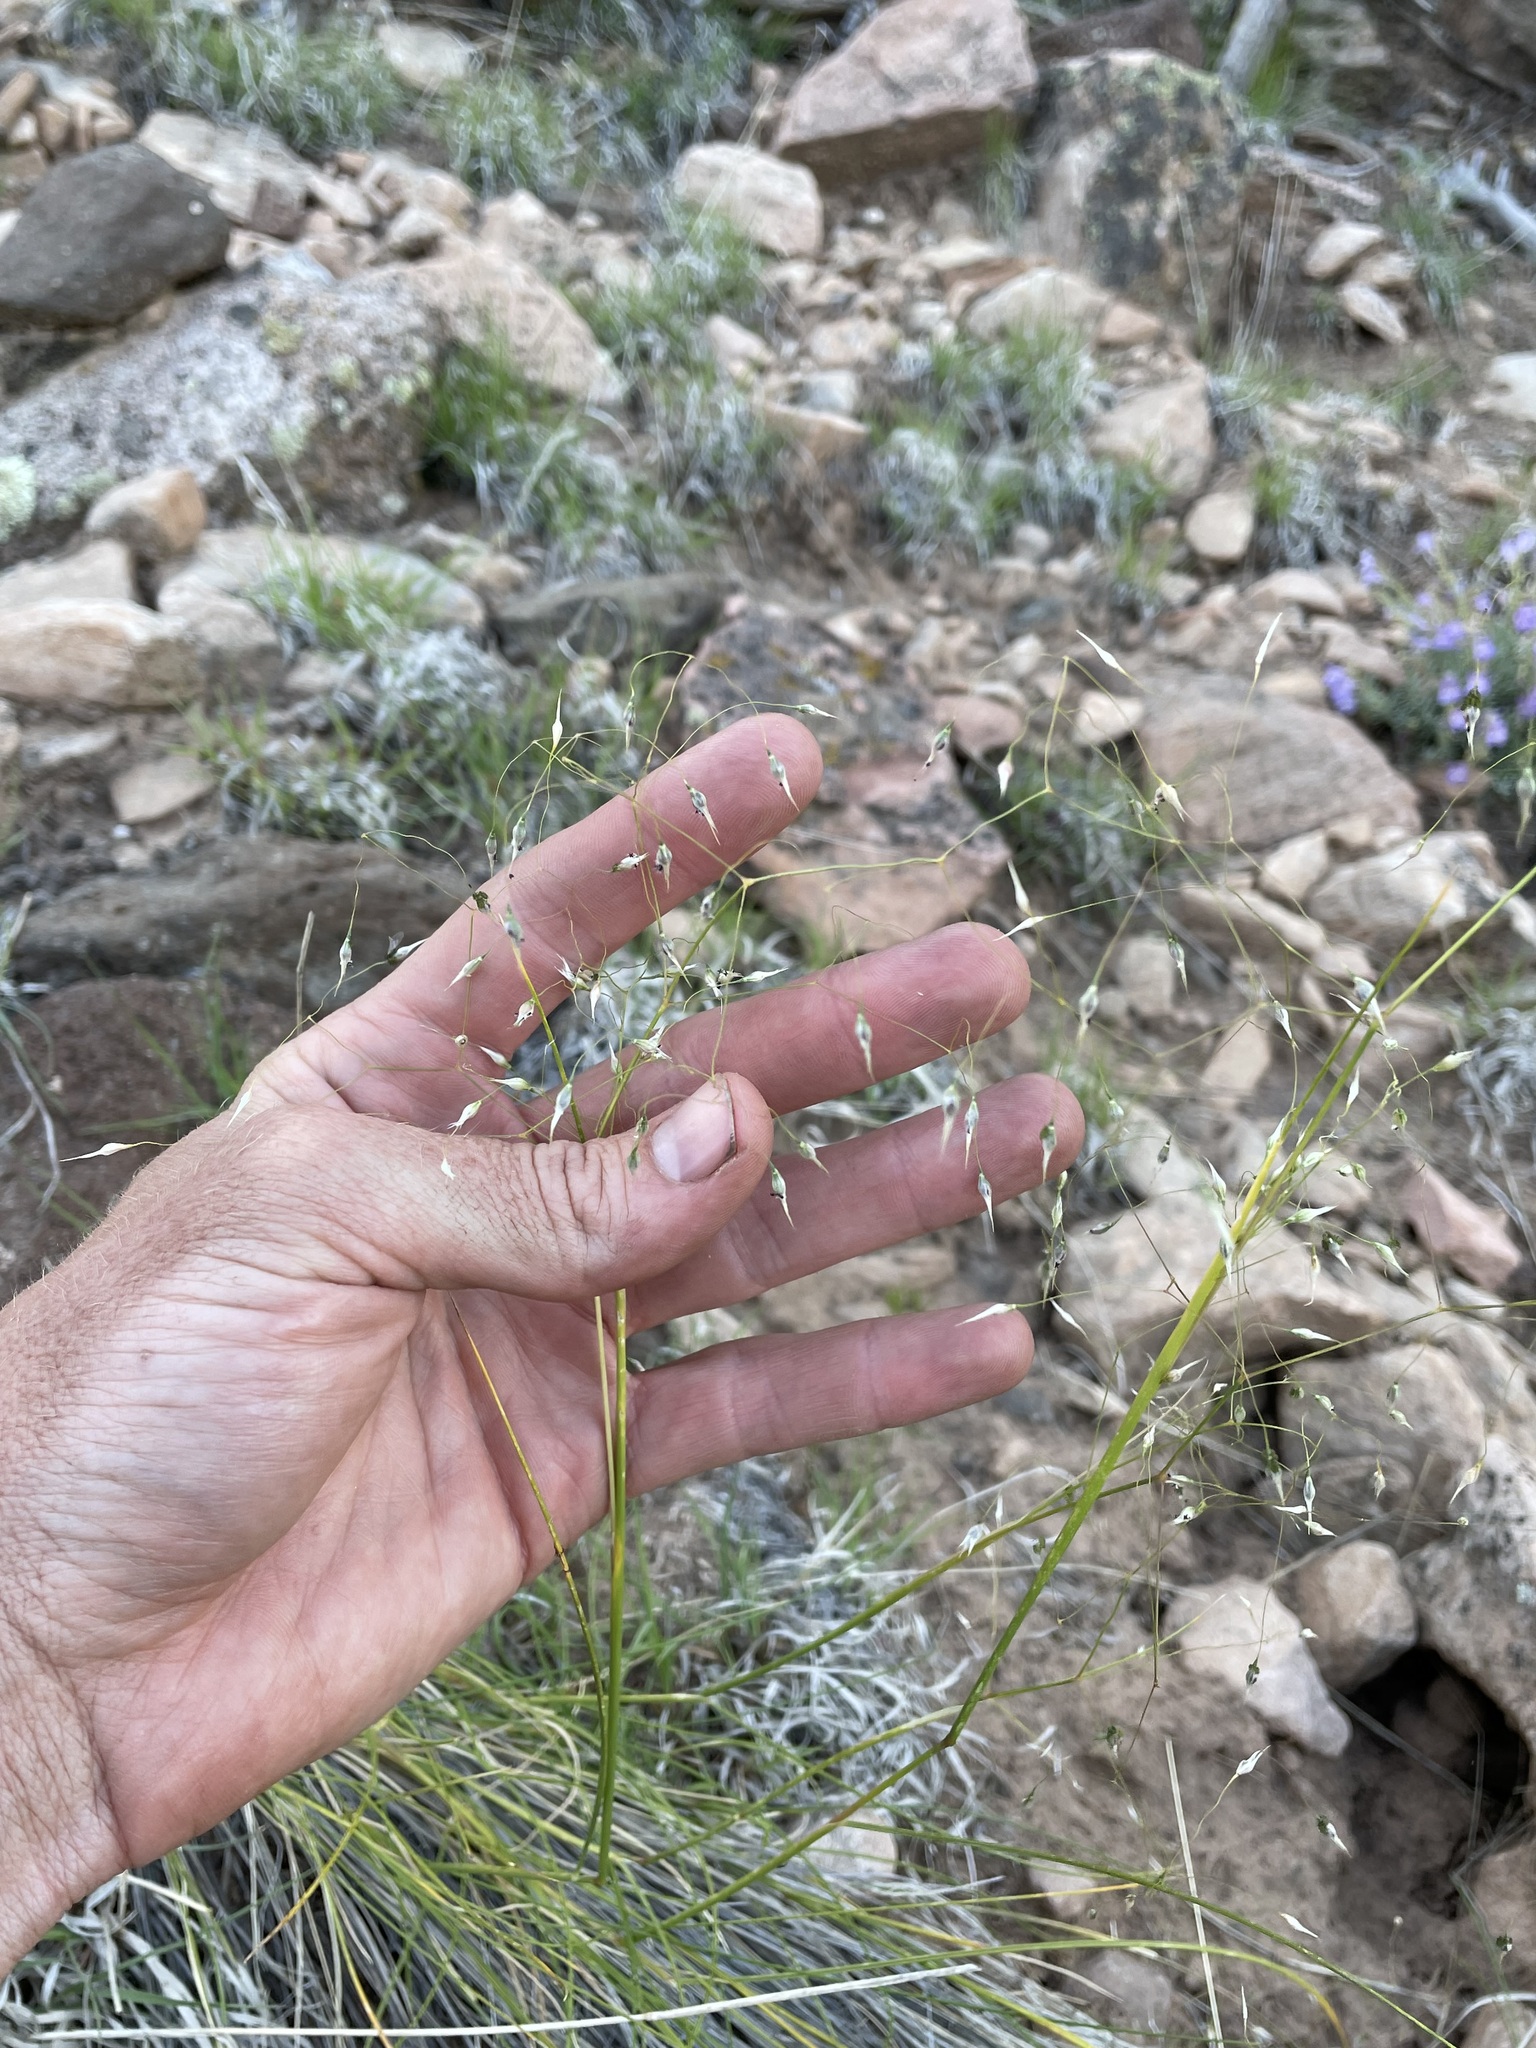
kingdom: Plantae
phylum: Tracheophyta
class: Liliopsida
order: Poales
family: Poaceae
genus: Eriocoma
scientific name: Eriocoma hymenoides
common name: Indian mountain ricegrass
